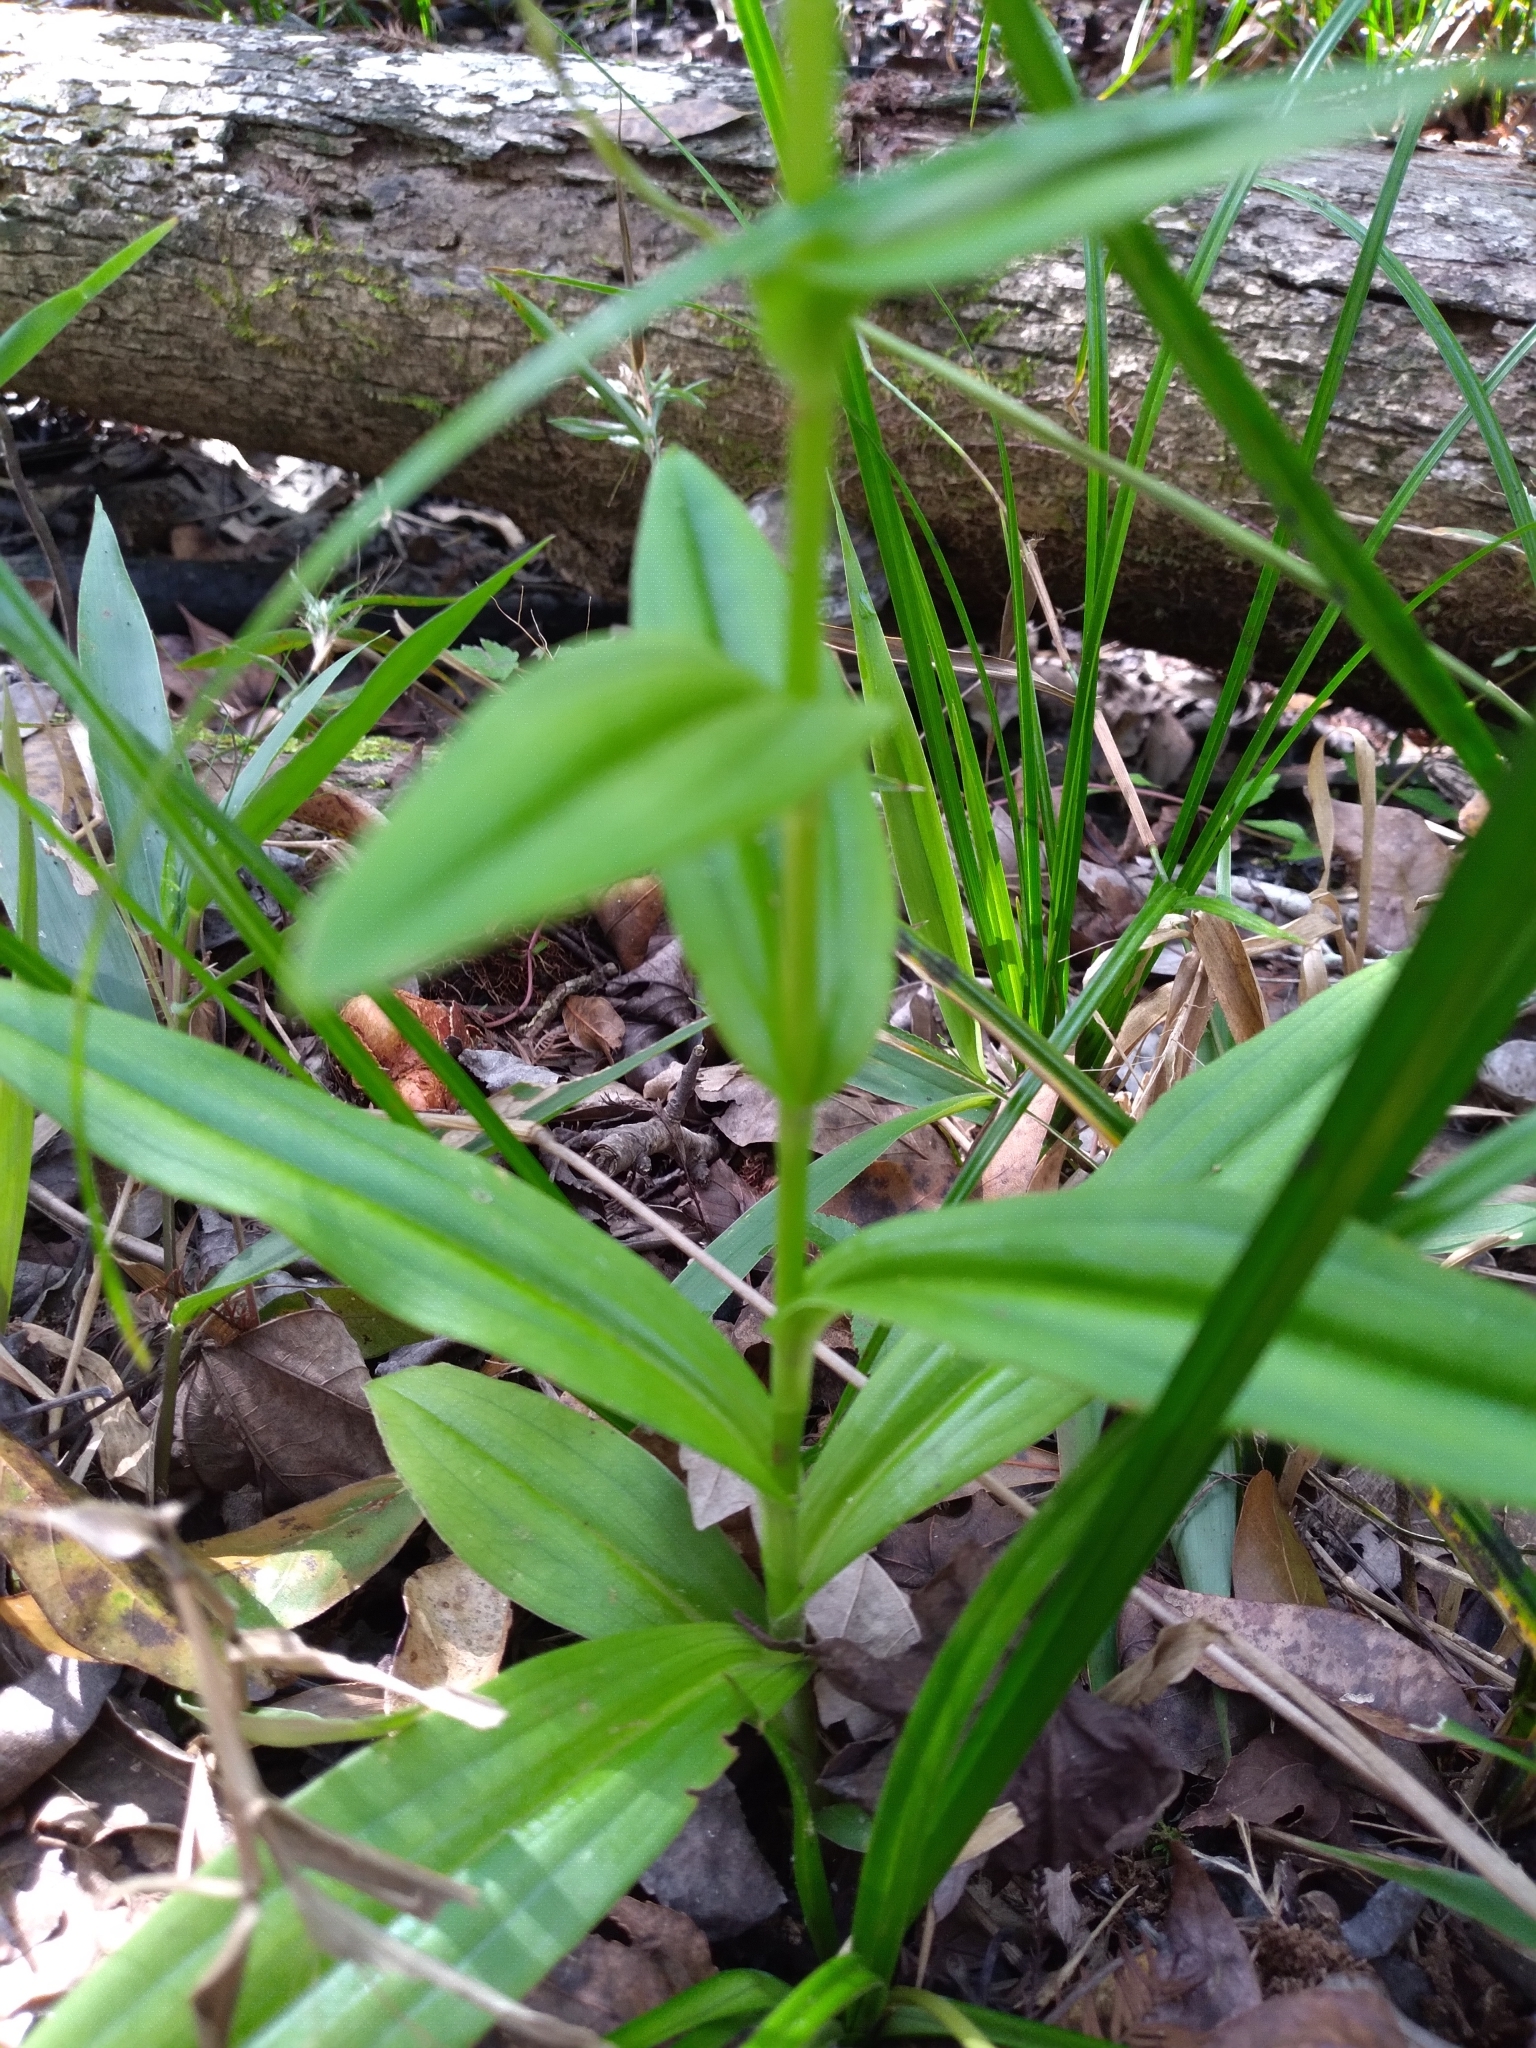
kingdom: Plantae
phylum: Tracheophyta
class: Liliopsida
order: Asparagales
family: Orchidaceae
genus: Habenaria
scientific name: Habenaria floribunda
